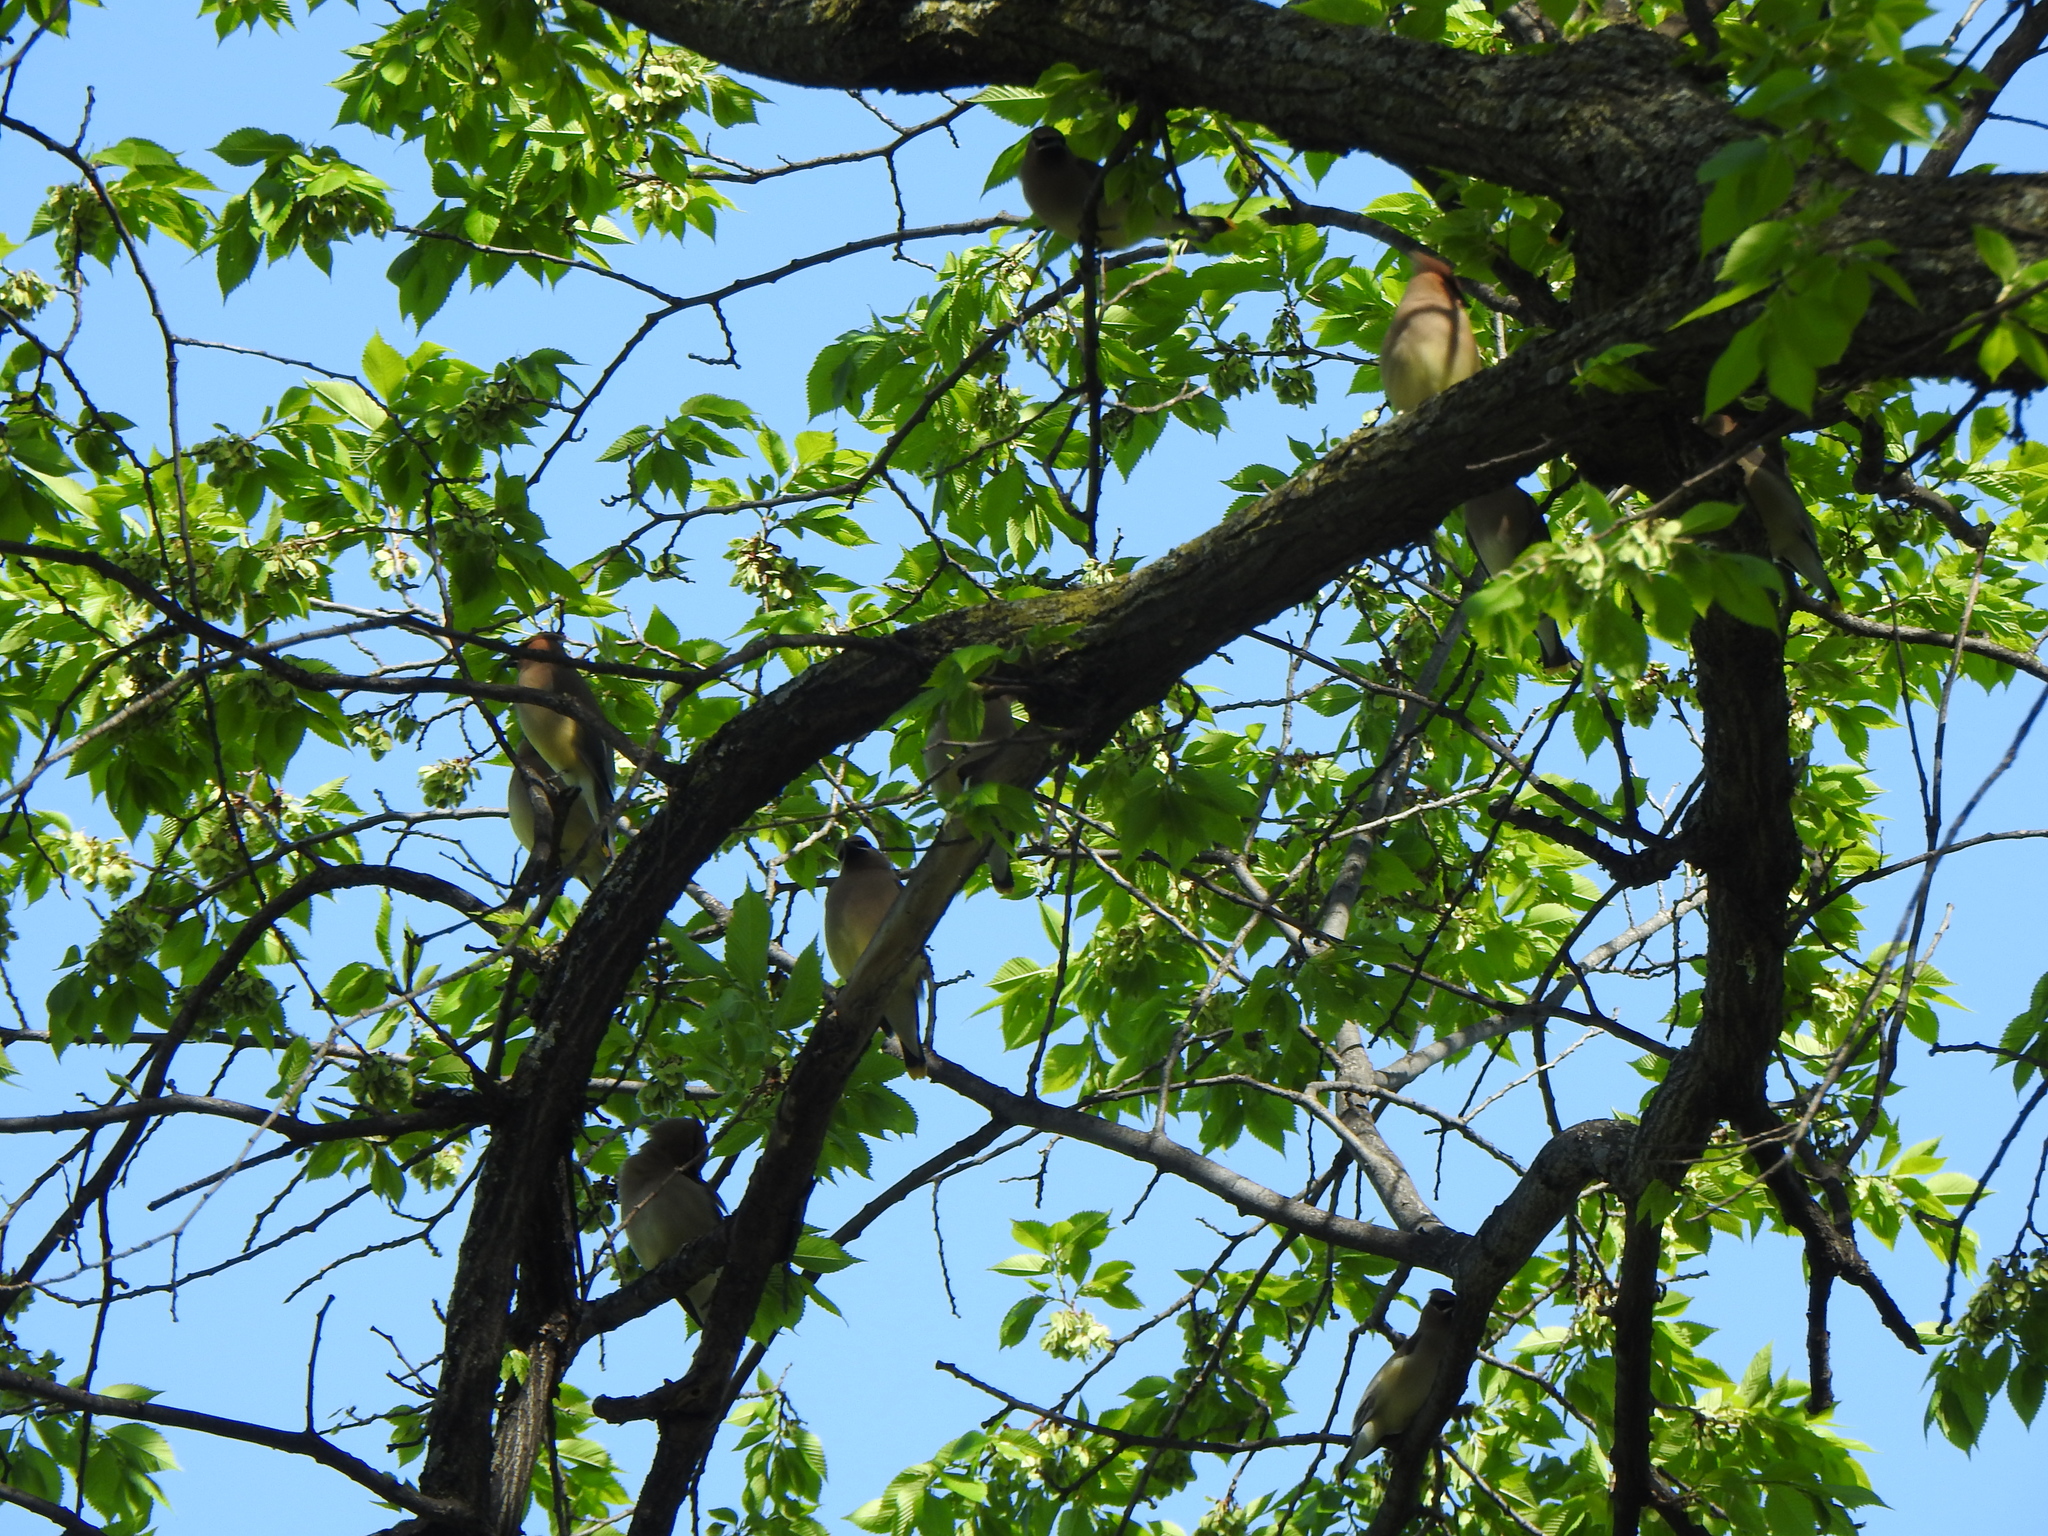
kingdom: Animalia
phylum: Chordata
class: Aves
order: Passeriformes
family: Bombycillidae
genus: Bombycilla
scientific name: Bombycilla cedrorum
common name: Cedar waxwing
